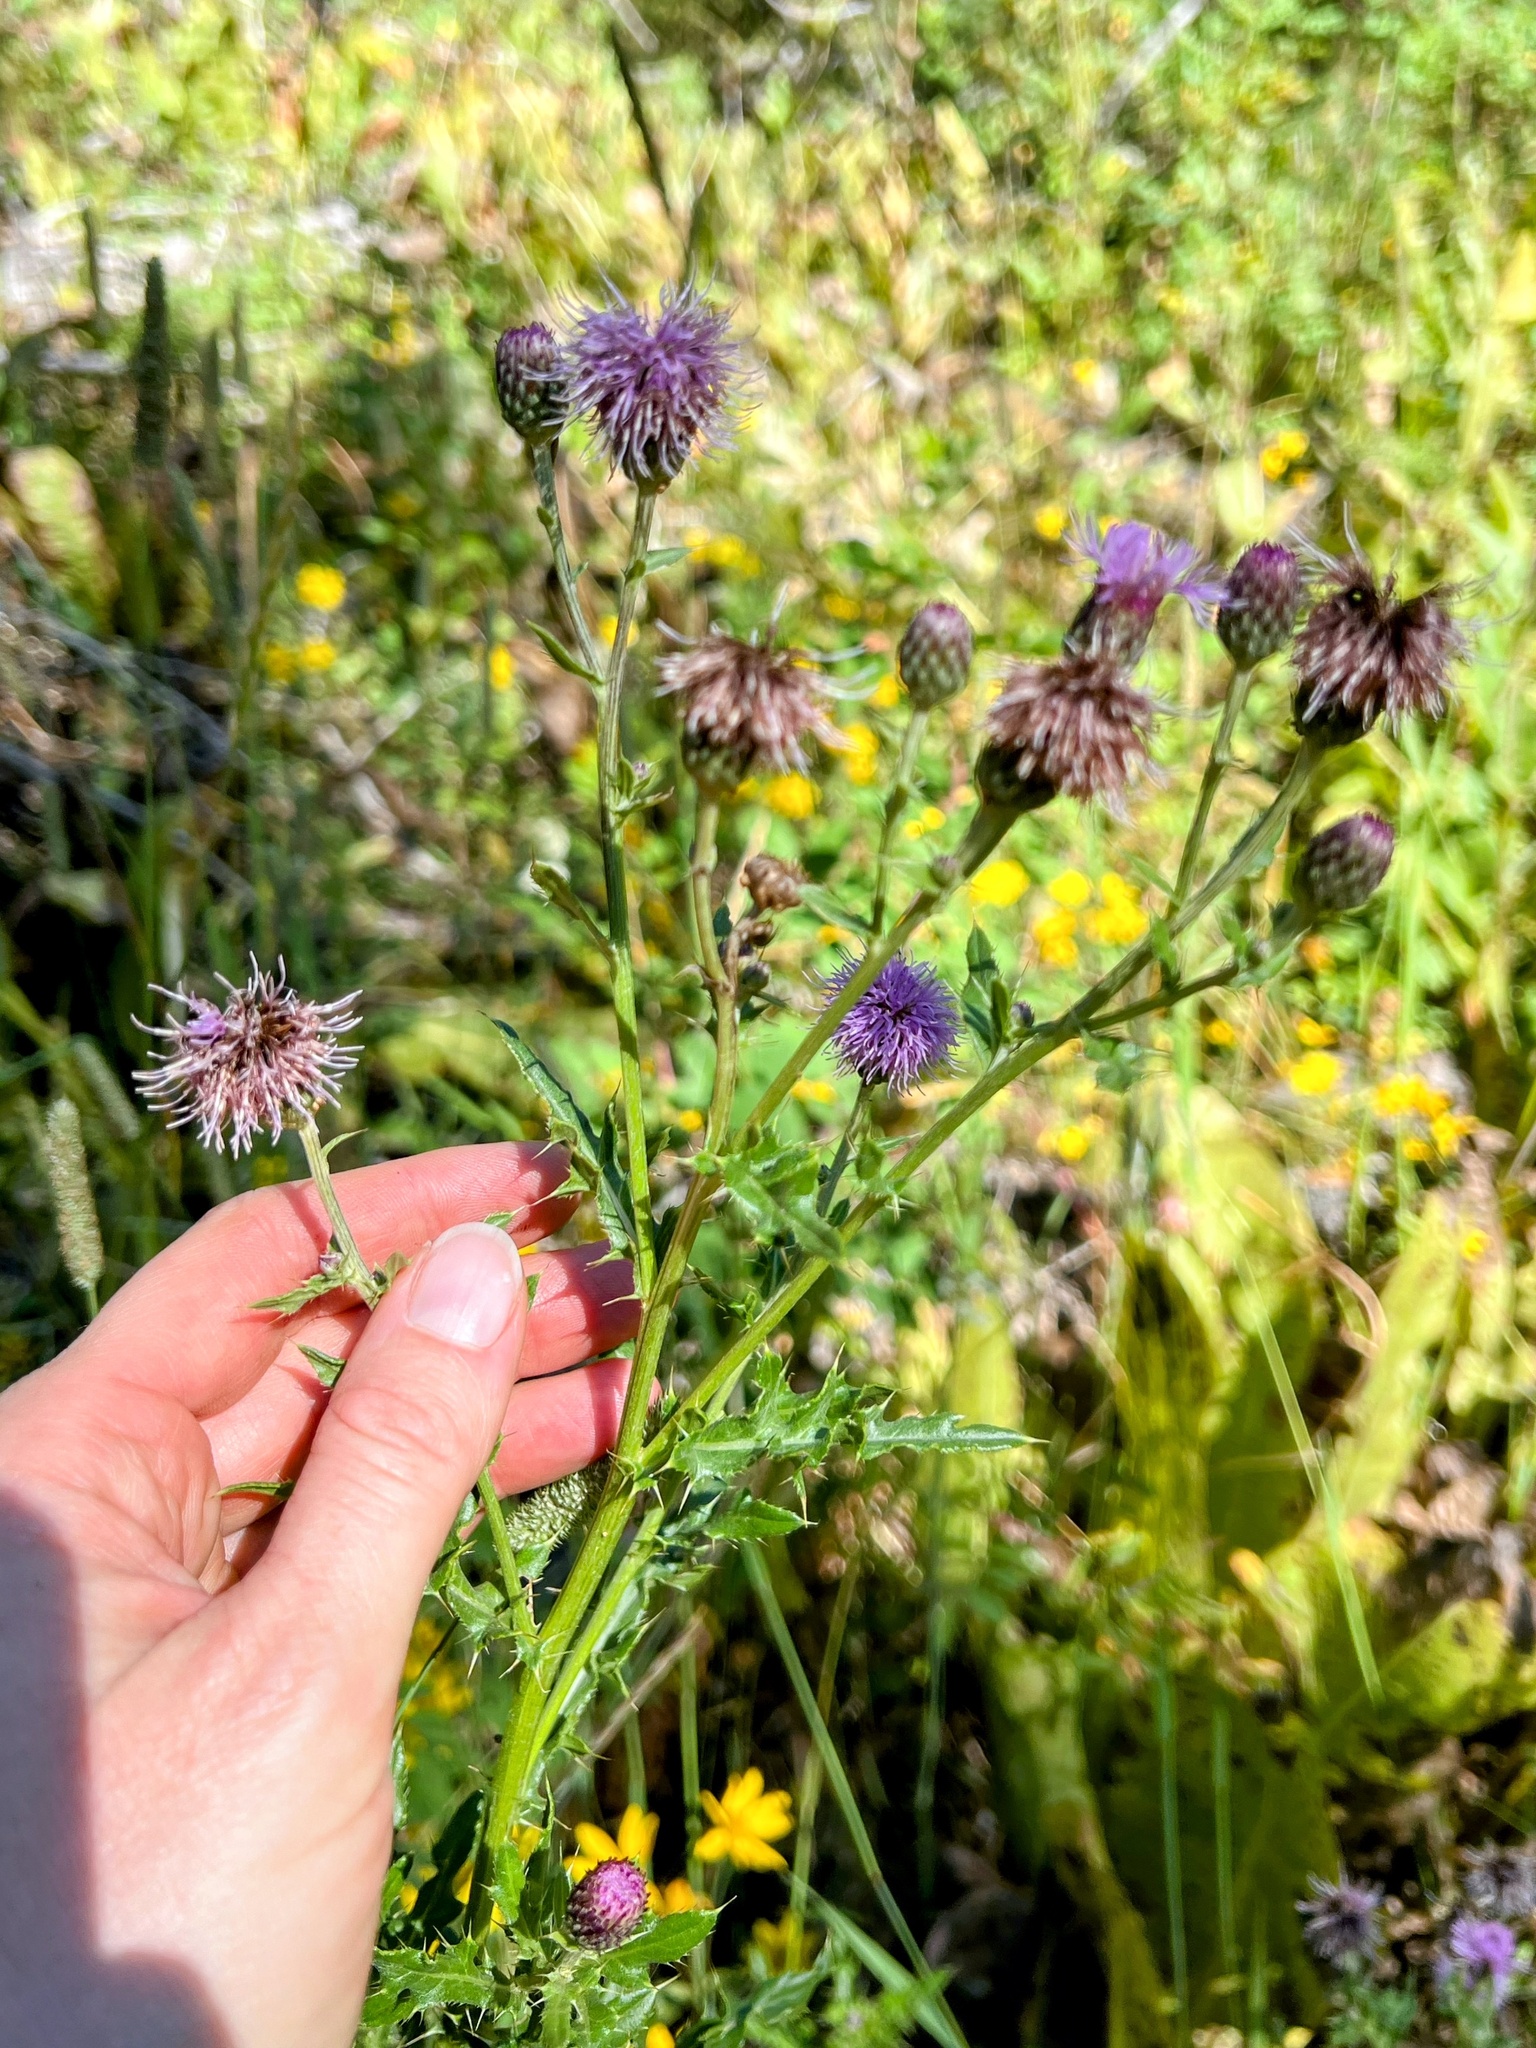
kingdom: Plantae
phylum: Tracheophyta
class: Magnoliopsida
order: Asterales
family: Asteraceae
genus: Cirsium
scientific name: Cirsium arvense
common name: Creeping thistle
